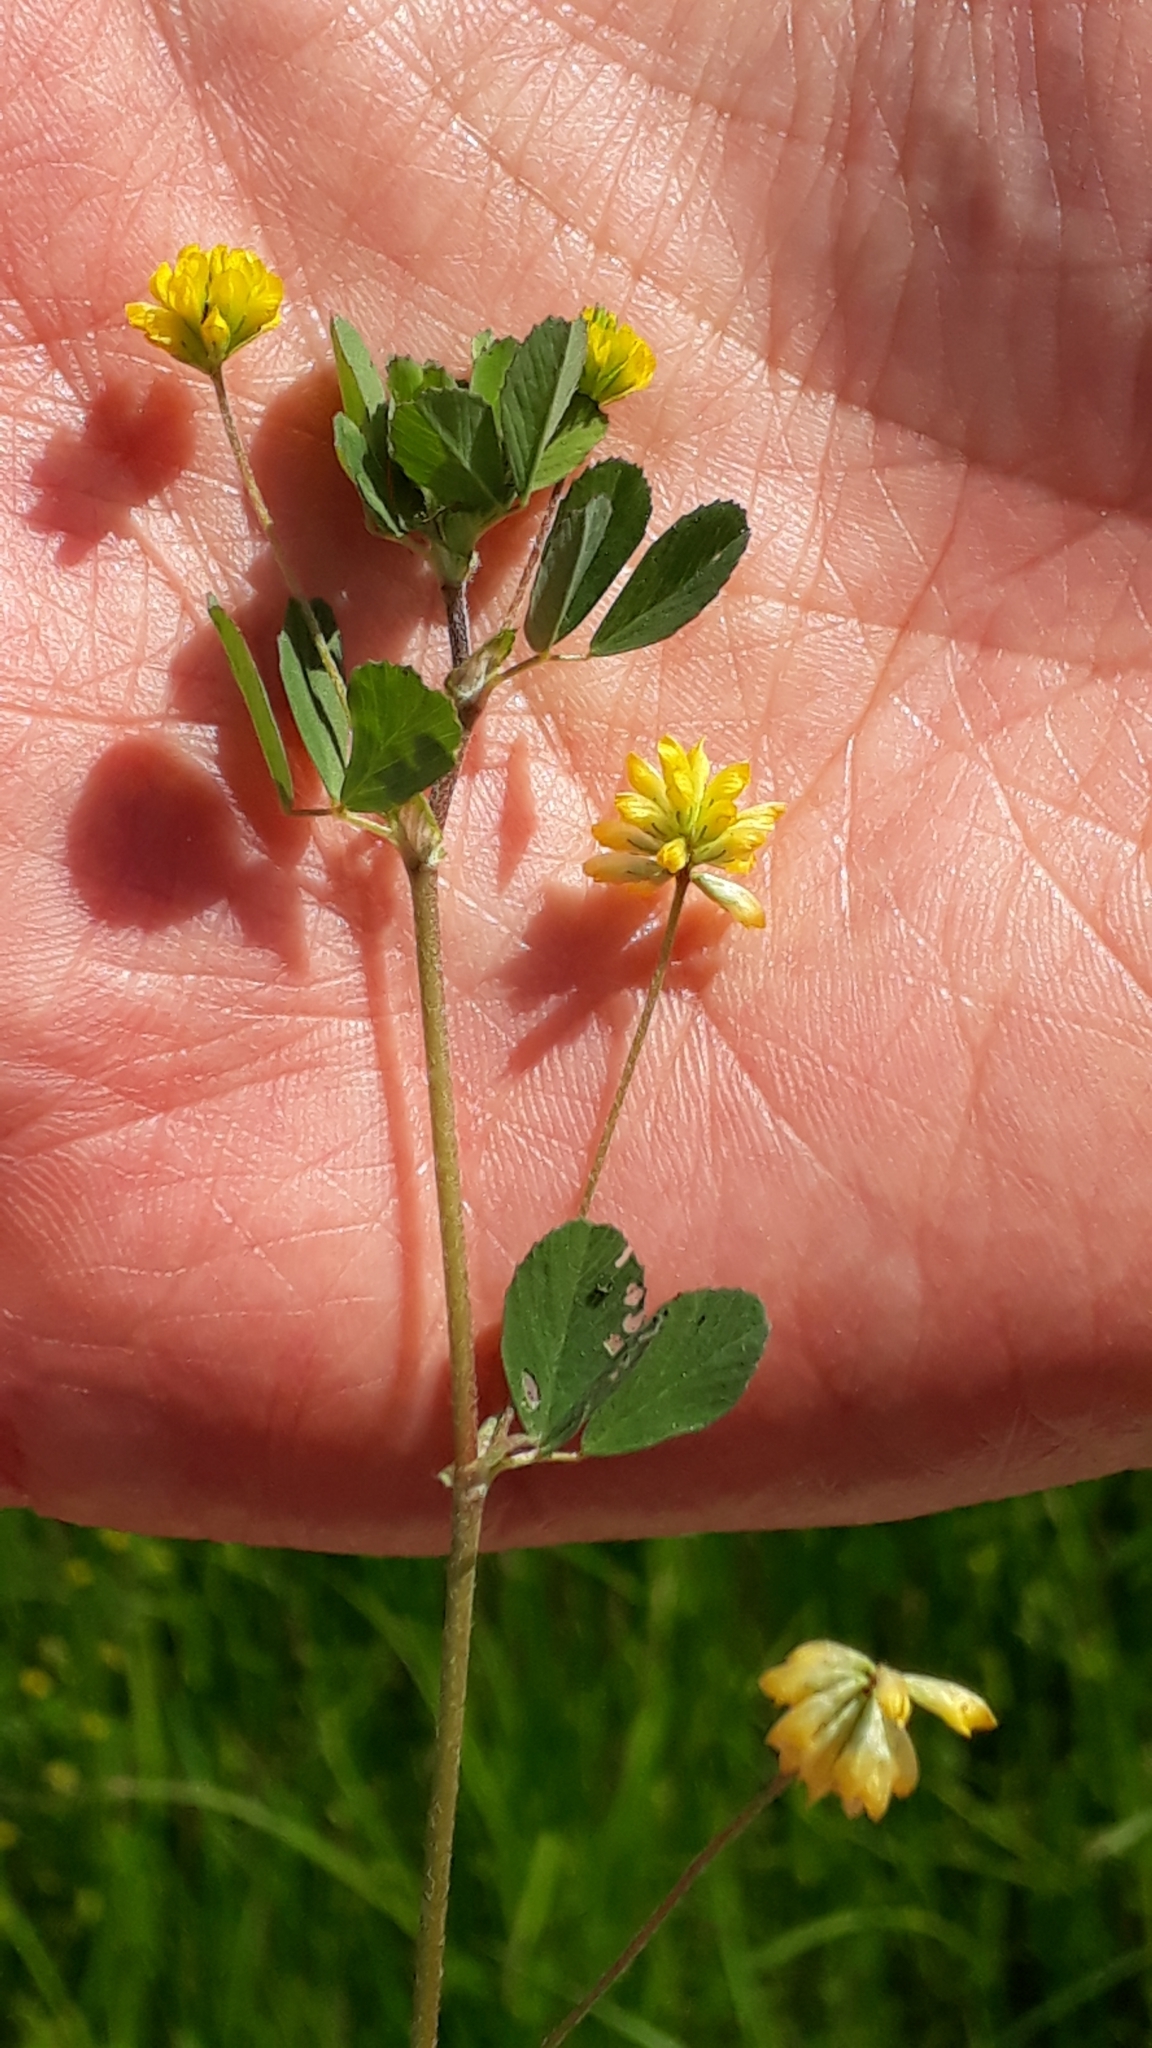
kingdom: Plantae
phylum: Tracheophyta
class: Magnoliopsida
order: Fabales
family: Fabaceae
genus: Trifolium
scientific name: Trifolium dubium
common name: Suckling clover
